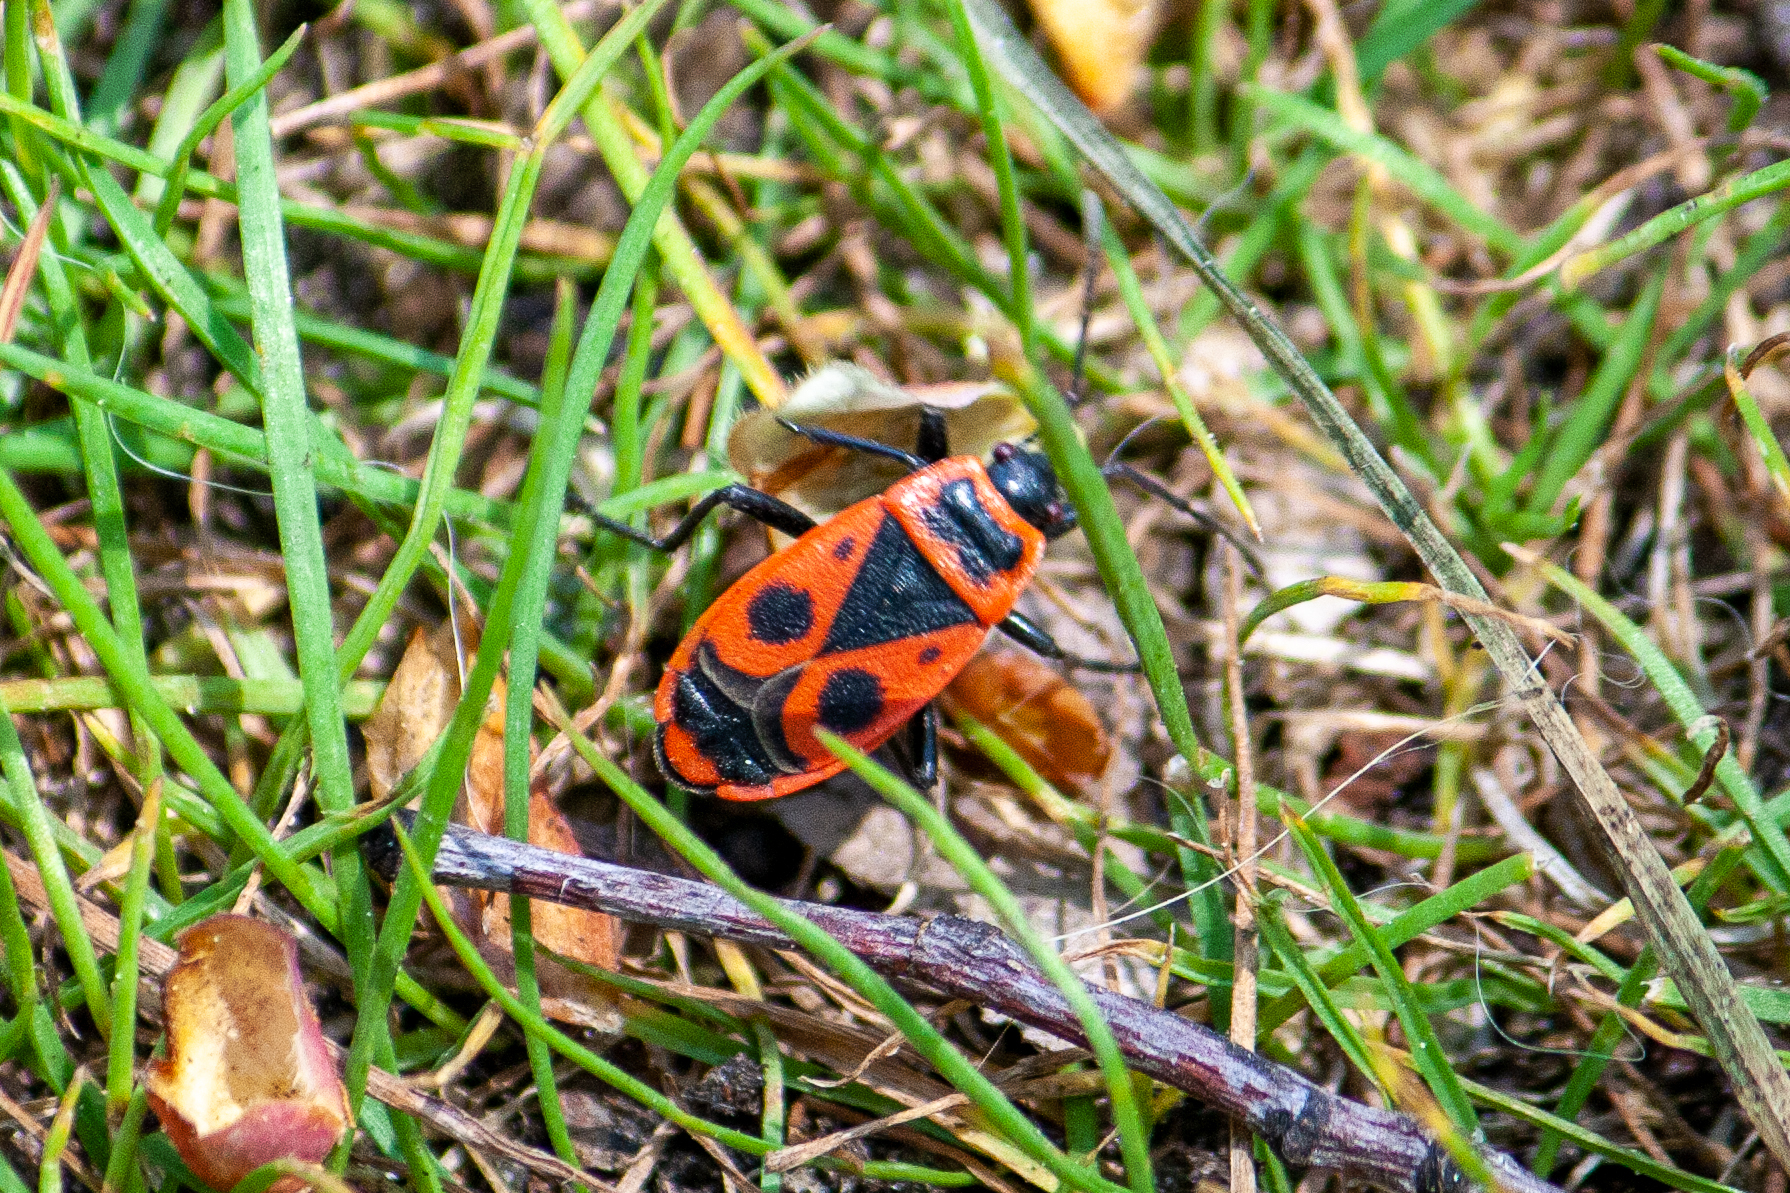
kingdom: Animalia
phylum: Arthropoda
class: Insecta
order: Hemiptera
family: Pyrrhocoridae
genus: Pyrrhocoris
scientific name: Pyrrhocoris apterus
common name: Firebug
